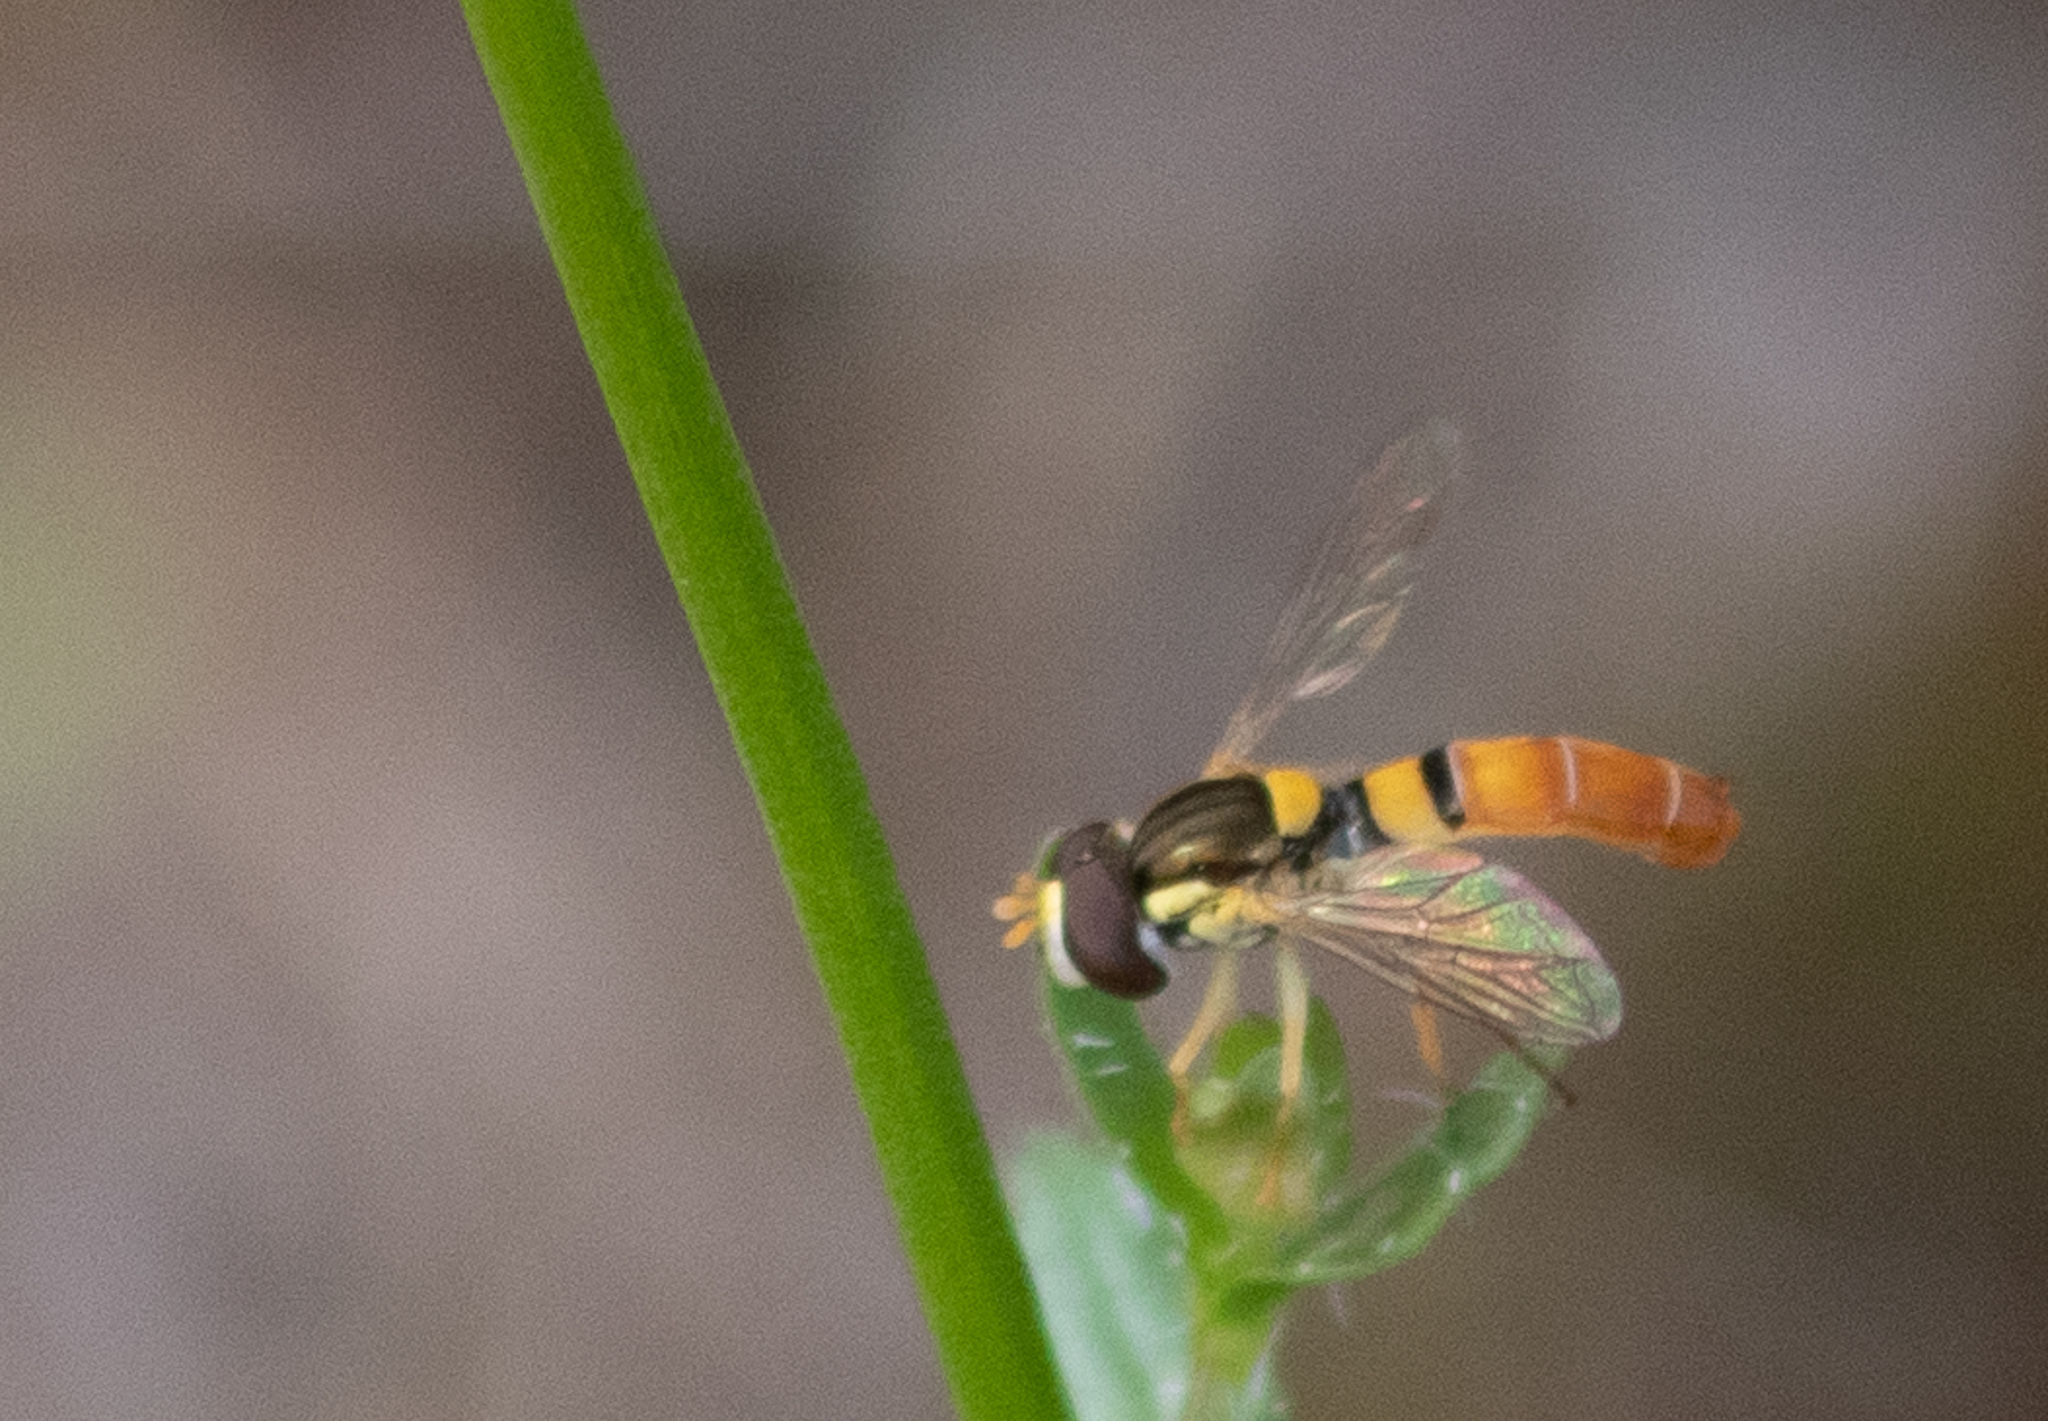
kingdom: Animalia
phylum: Arthropoda
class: Insecta
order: Diptera
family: Syrphidae
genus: Sphaerophoria
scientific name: Sphaerophoria contigua
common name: Tufted globetail
